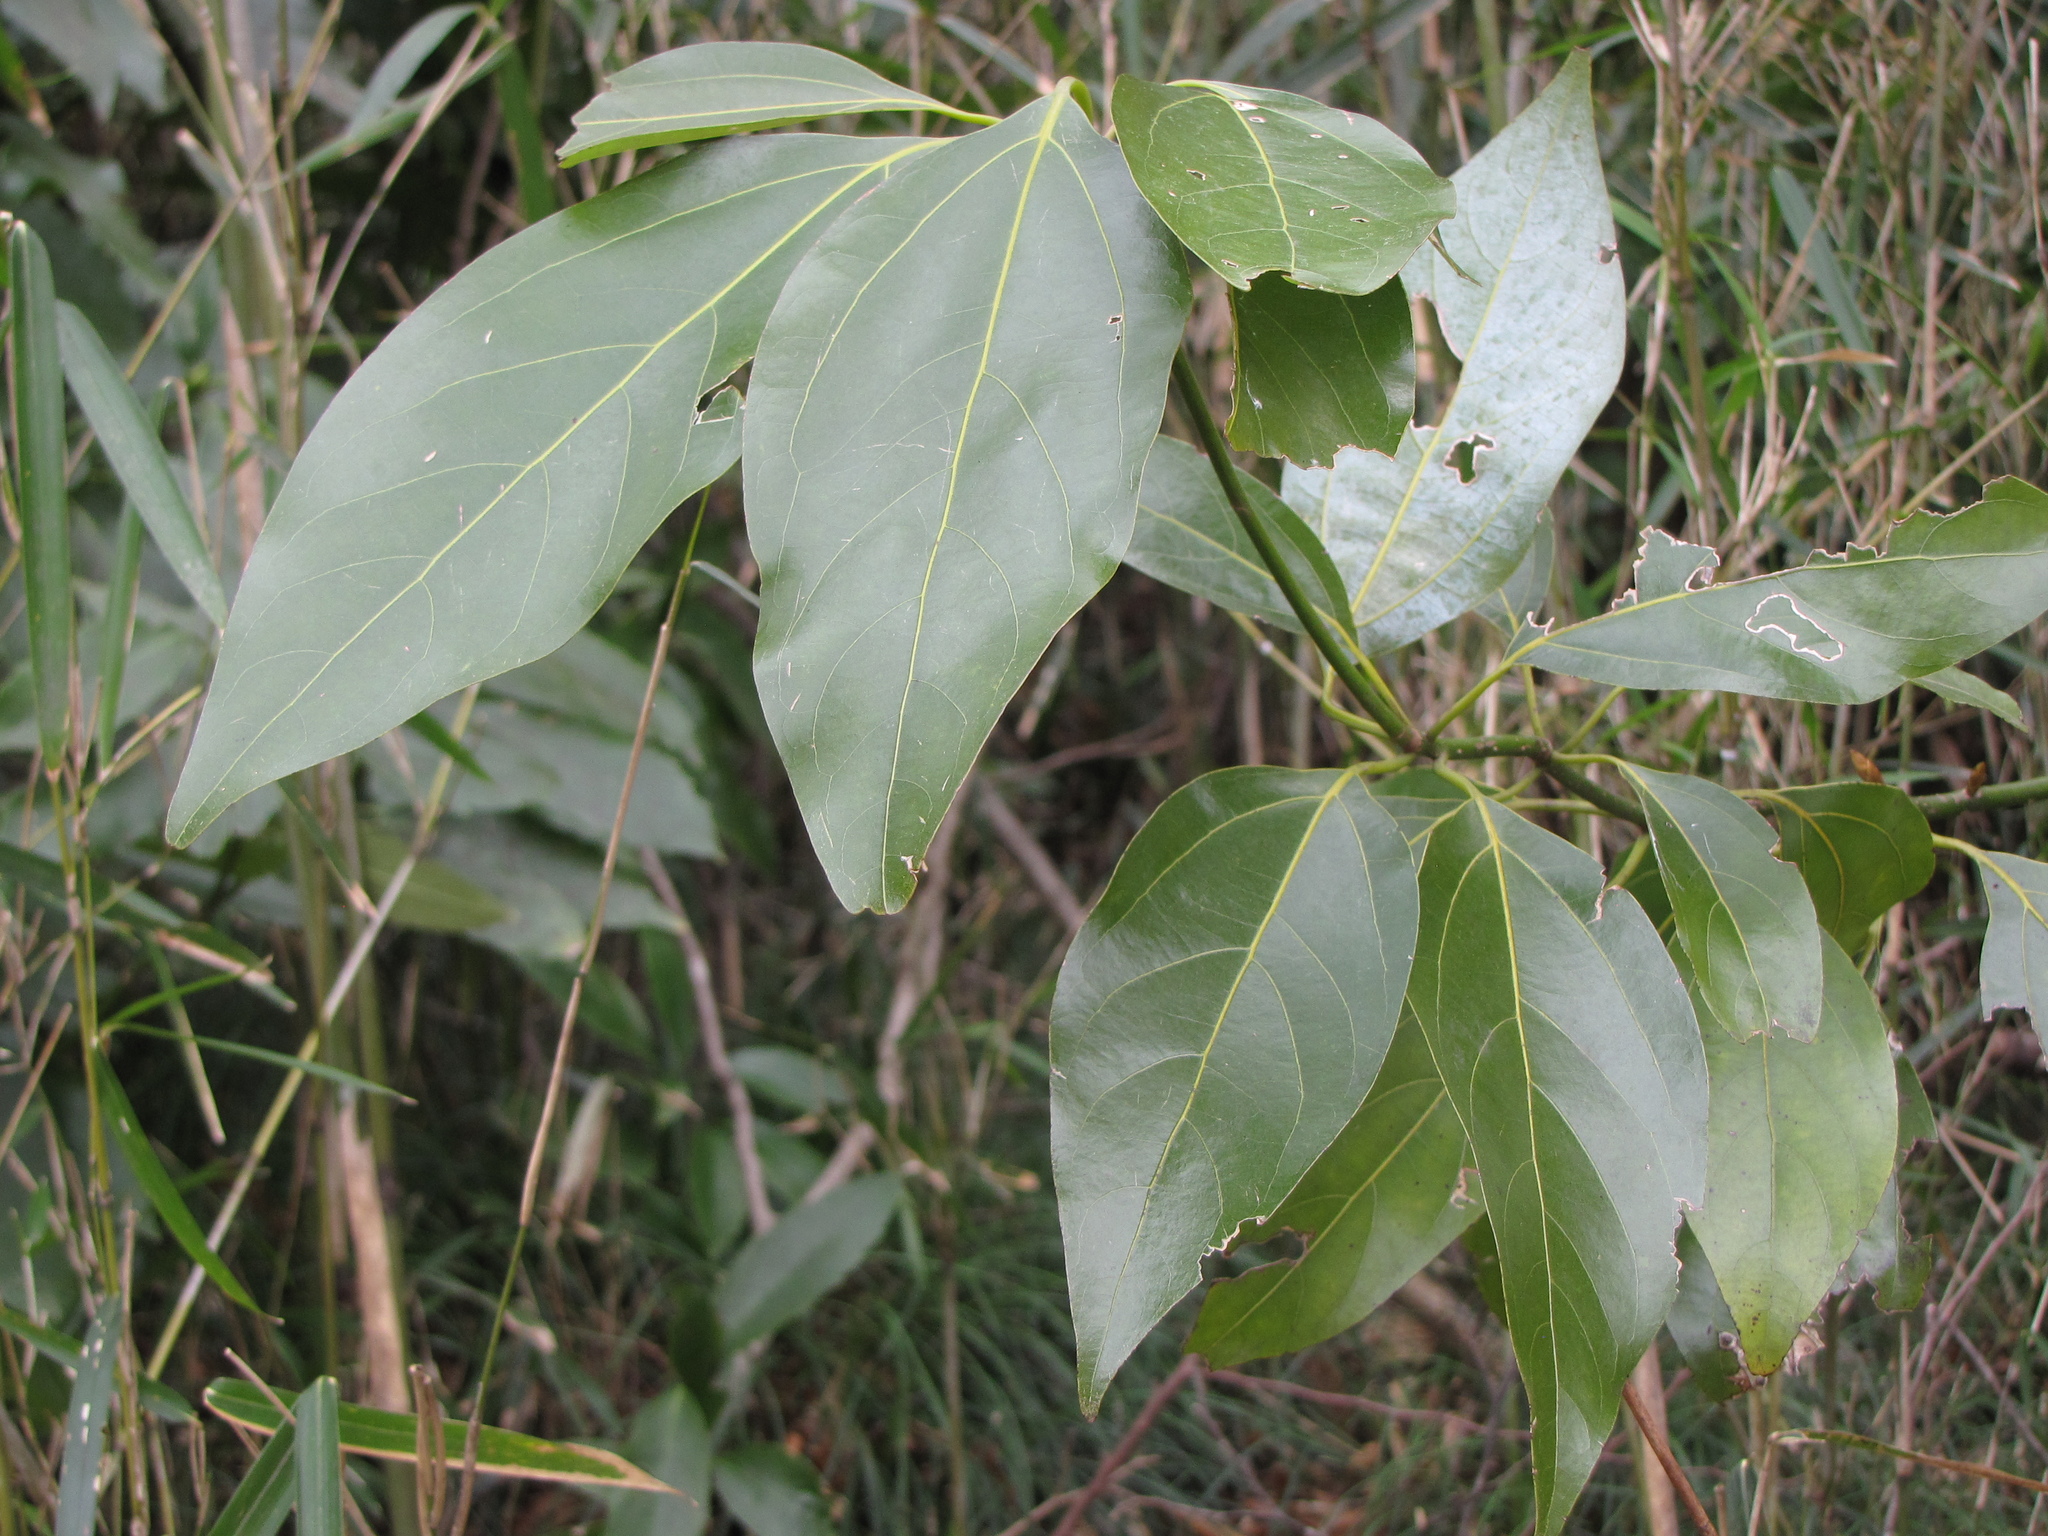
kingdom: Plantae
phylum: Tracheophyta
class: Magnoliopsida
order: Laurales
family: Lauraceae
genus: Neolitsea
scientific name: Neolitsea sericea
